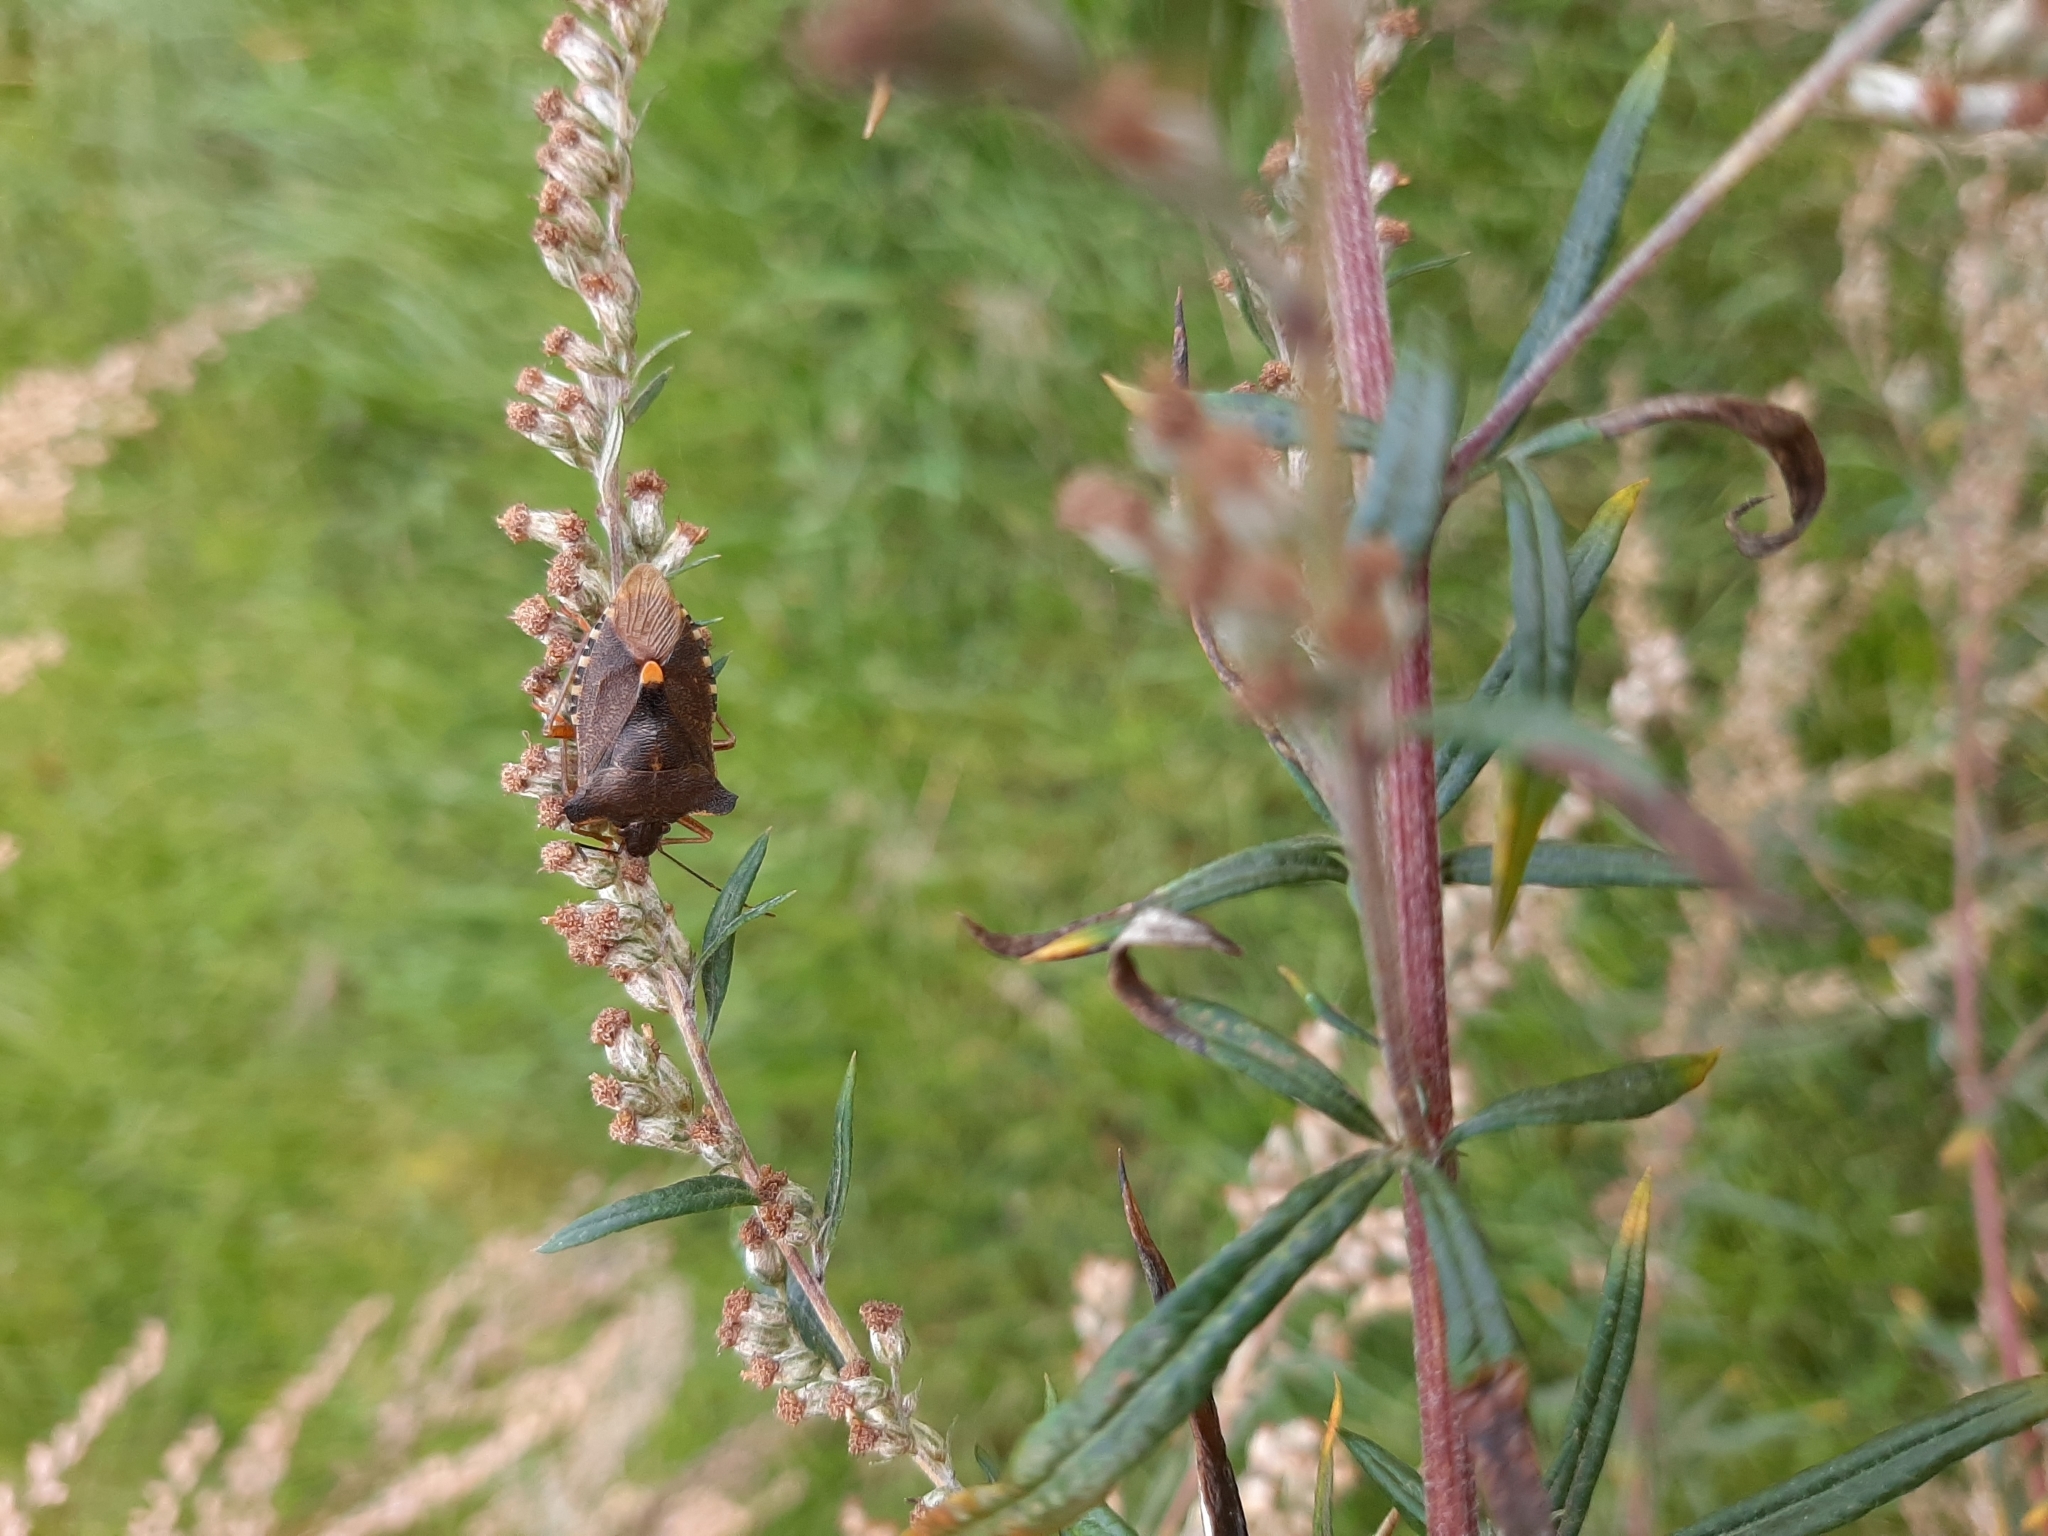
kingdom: Animalia
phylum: Arthropoda
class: Insecta
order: Hemiptera
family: Pentatomidae
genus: Pentatoma
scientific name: Pentatoma rufipes
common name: Forest bug
